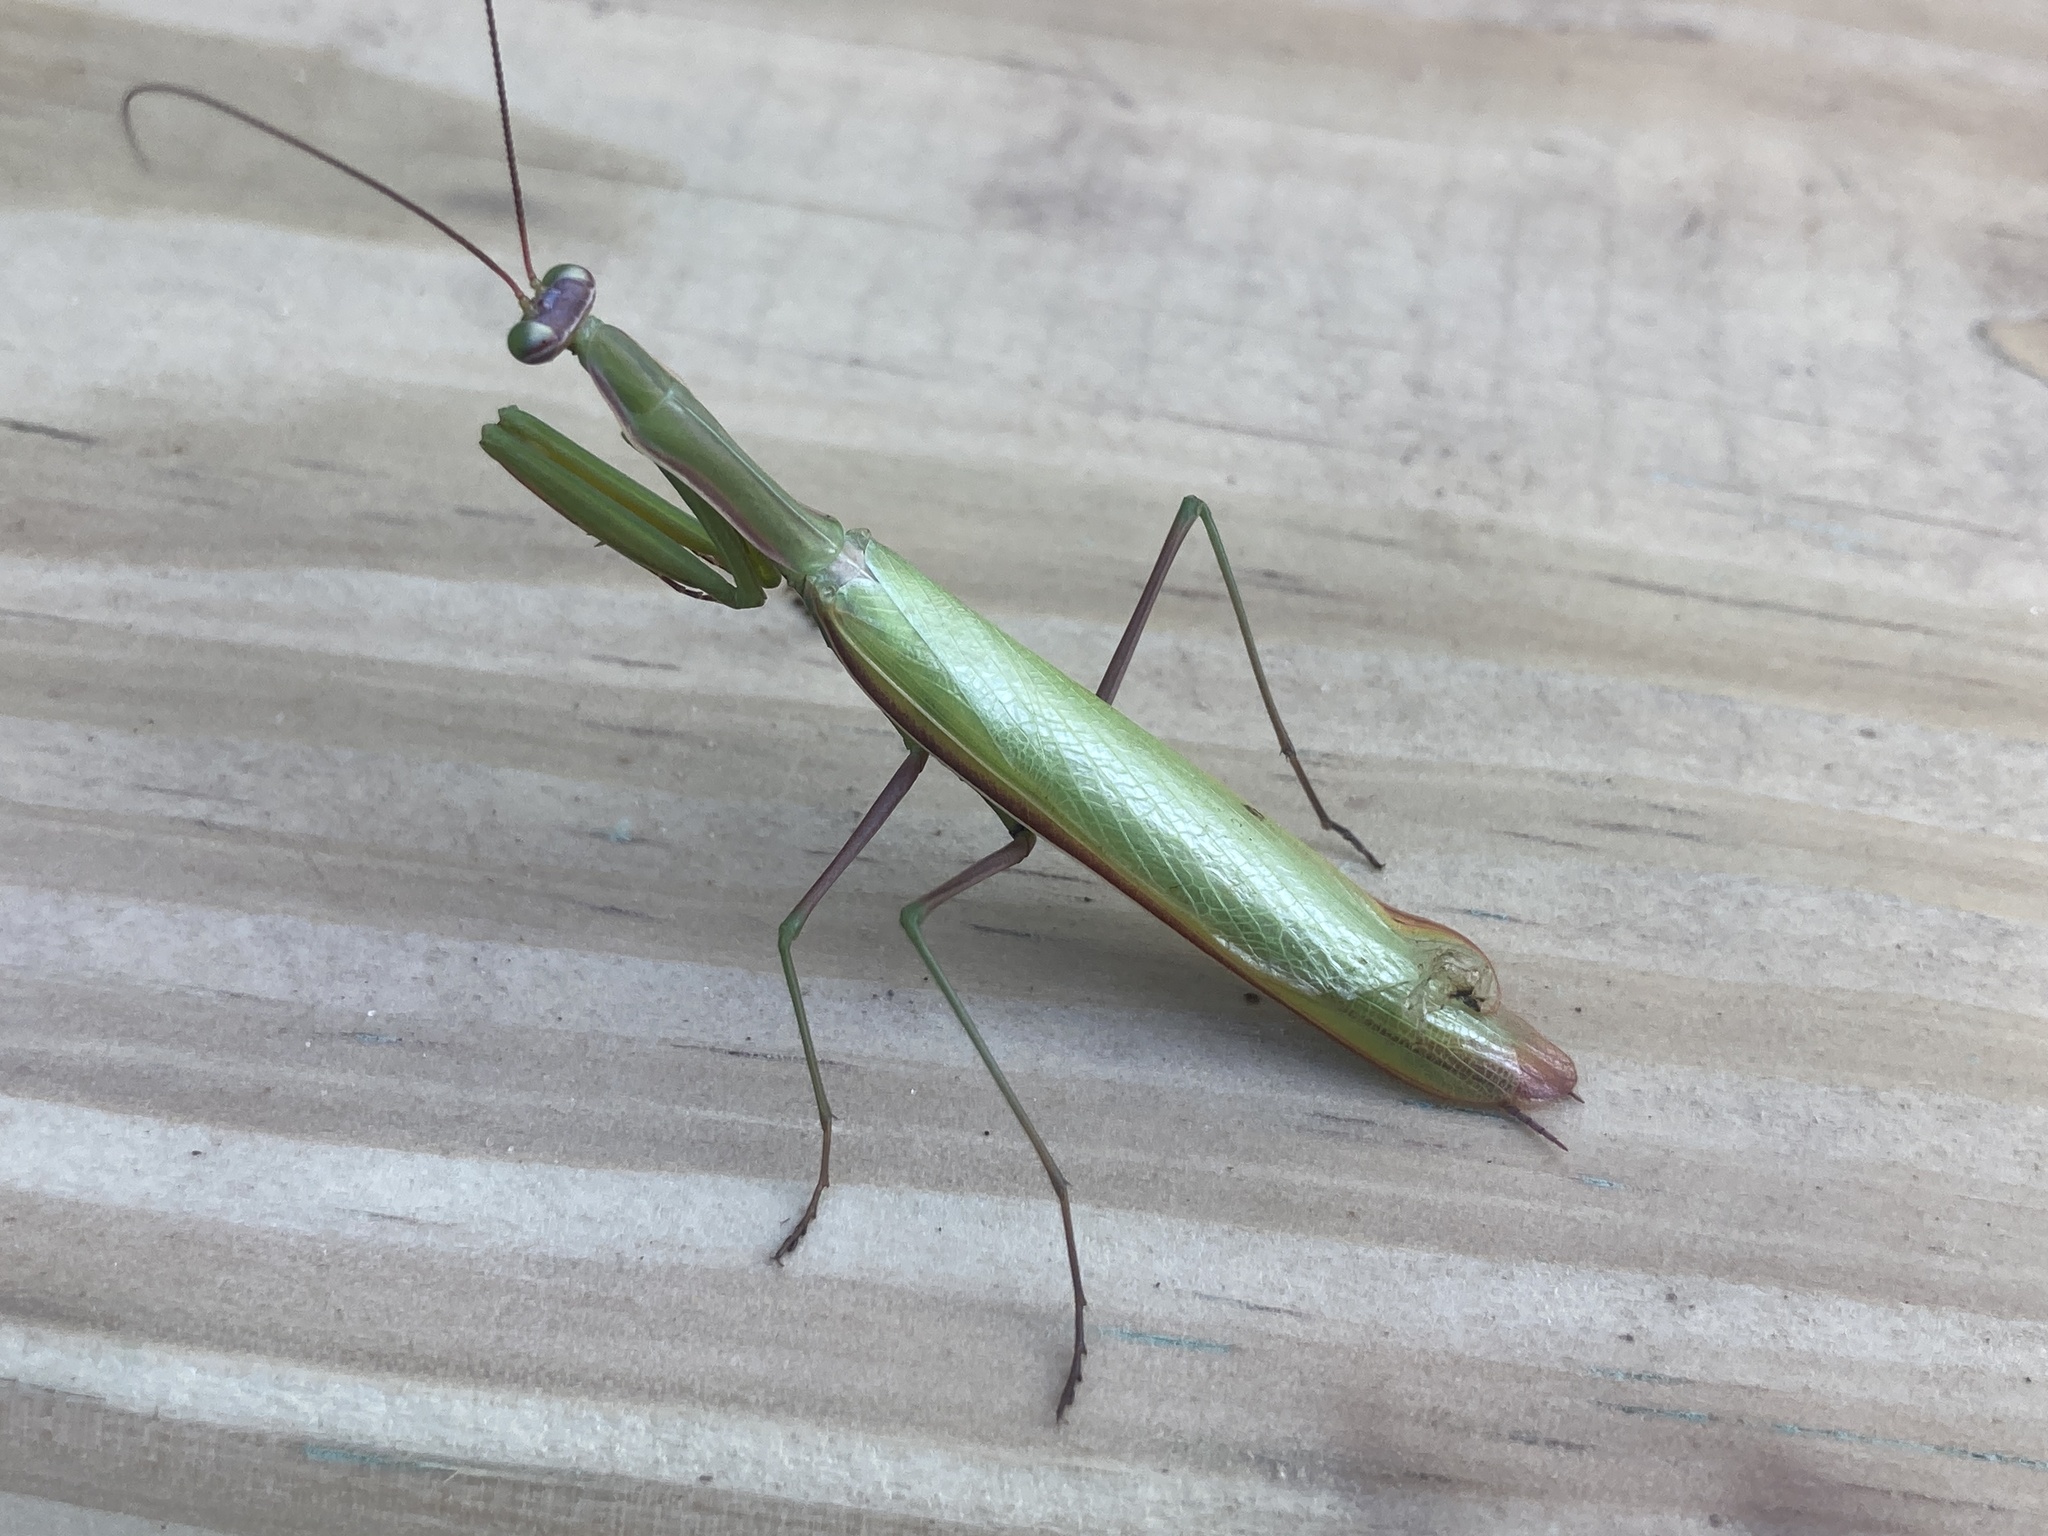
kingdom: Animalia
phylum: Arthropoda
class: Insecta
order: Mantodea
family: Mantidae
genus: Mantis
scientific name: Mantis religiosa
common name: Praying mantis
